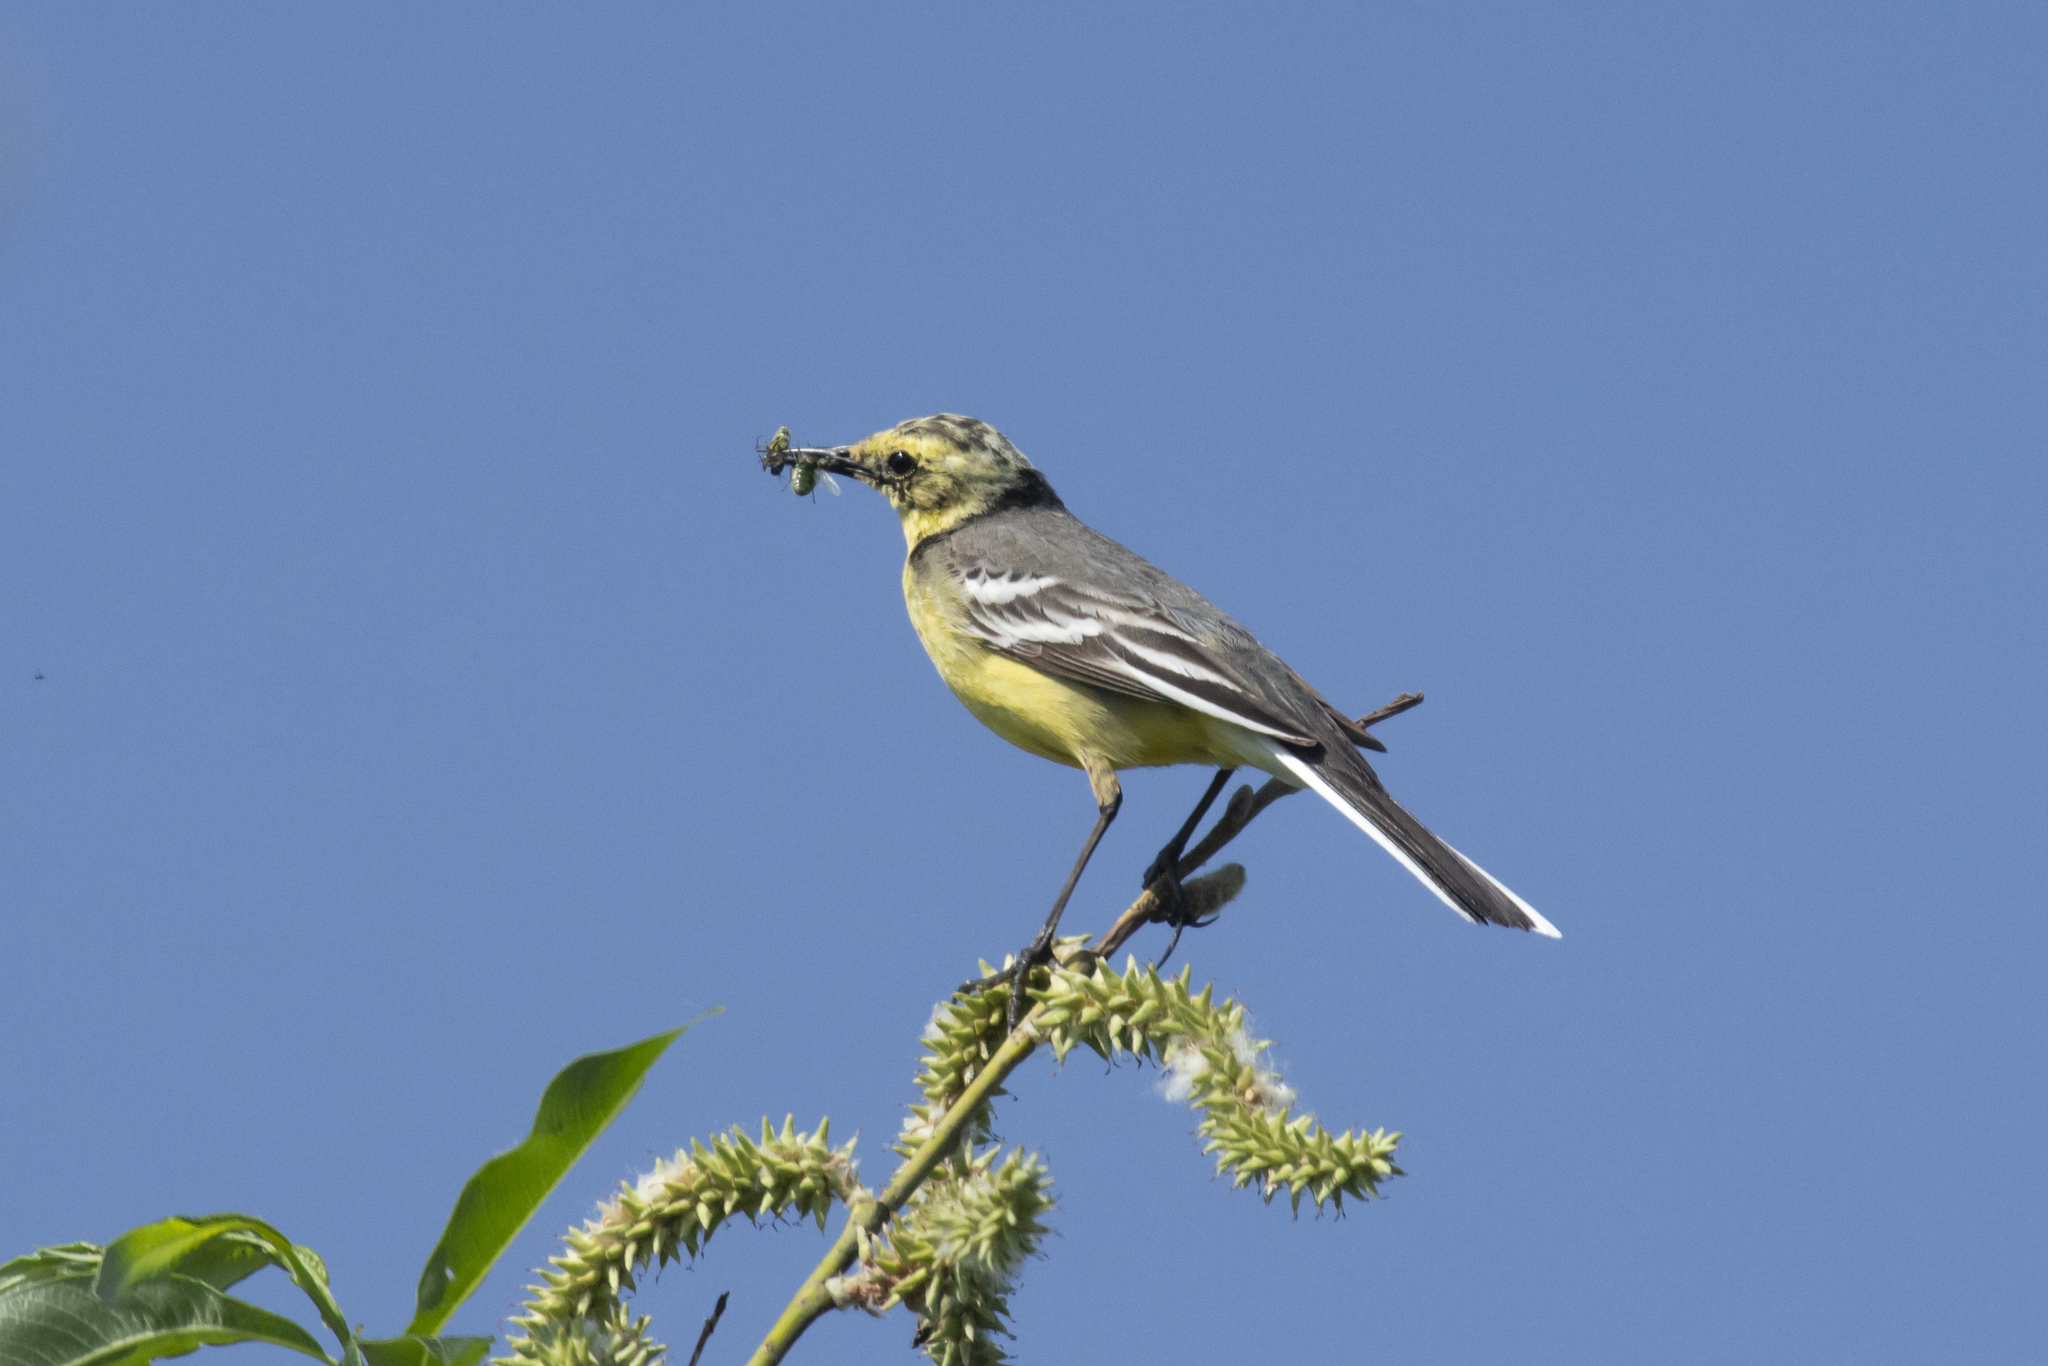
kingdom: Animalia
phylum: Chordata
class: Aves
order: Passeriformes
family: Motacillidae
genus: Motacilla
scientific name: Motacilla citreola
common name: Citrine wagtail
